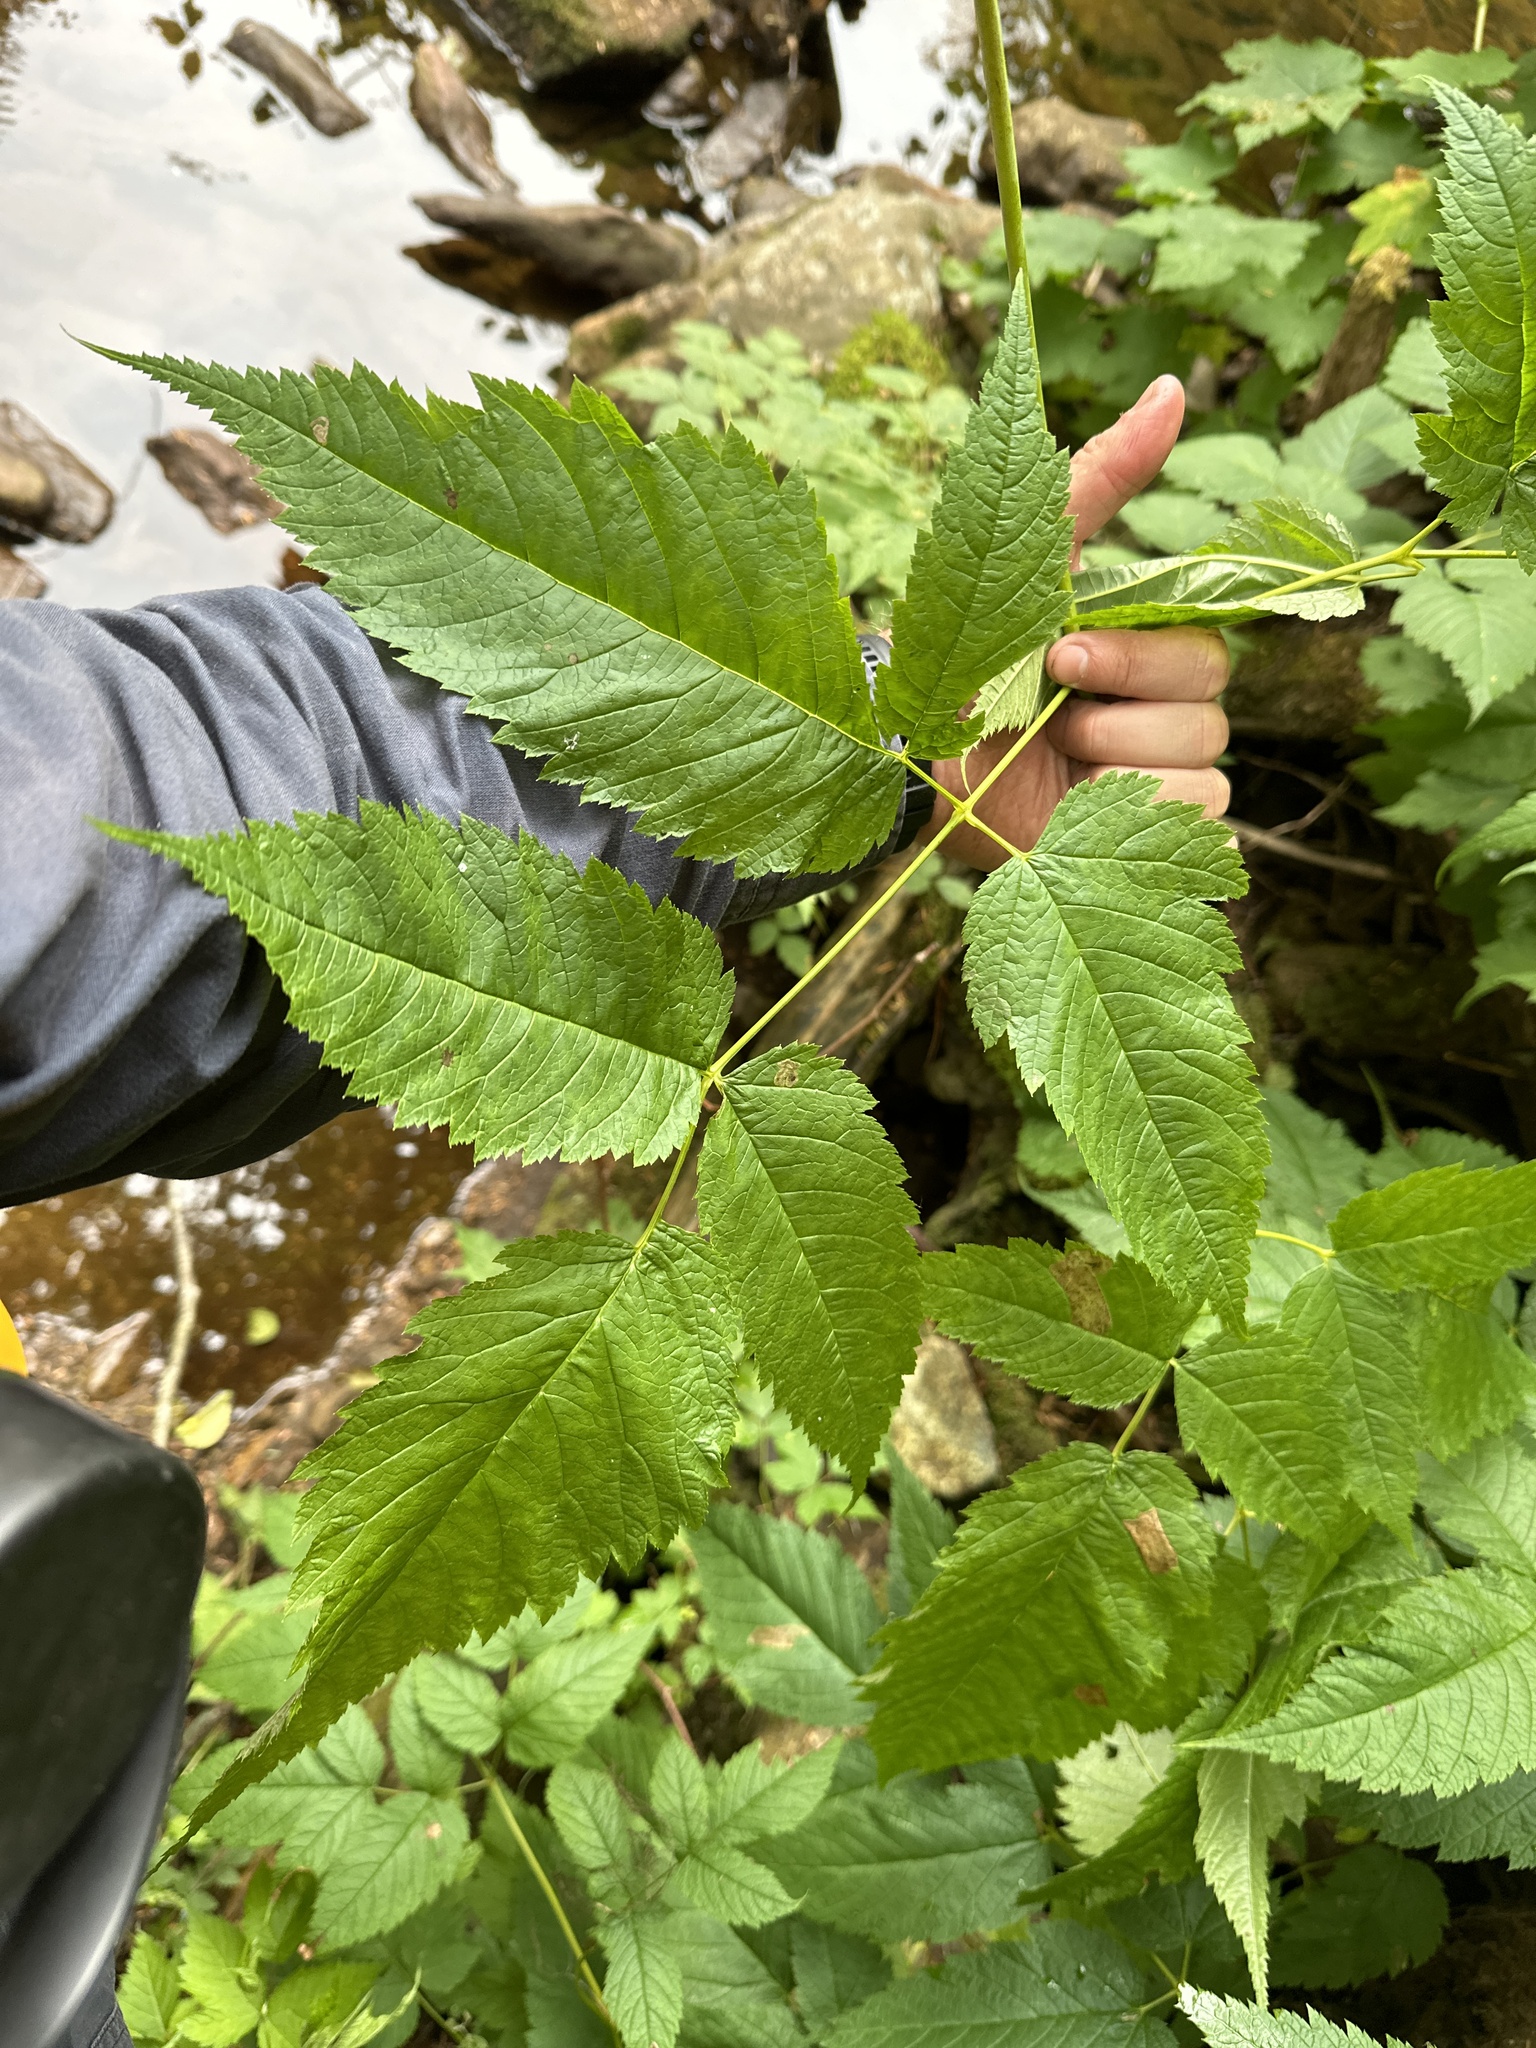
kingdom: Plantae
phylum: Tracheophyta
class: Magnoliopsida
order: Rosales
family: Rosaceae
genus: Aruncus
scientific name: Aruncus dioicus
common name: Buck's-beard
